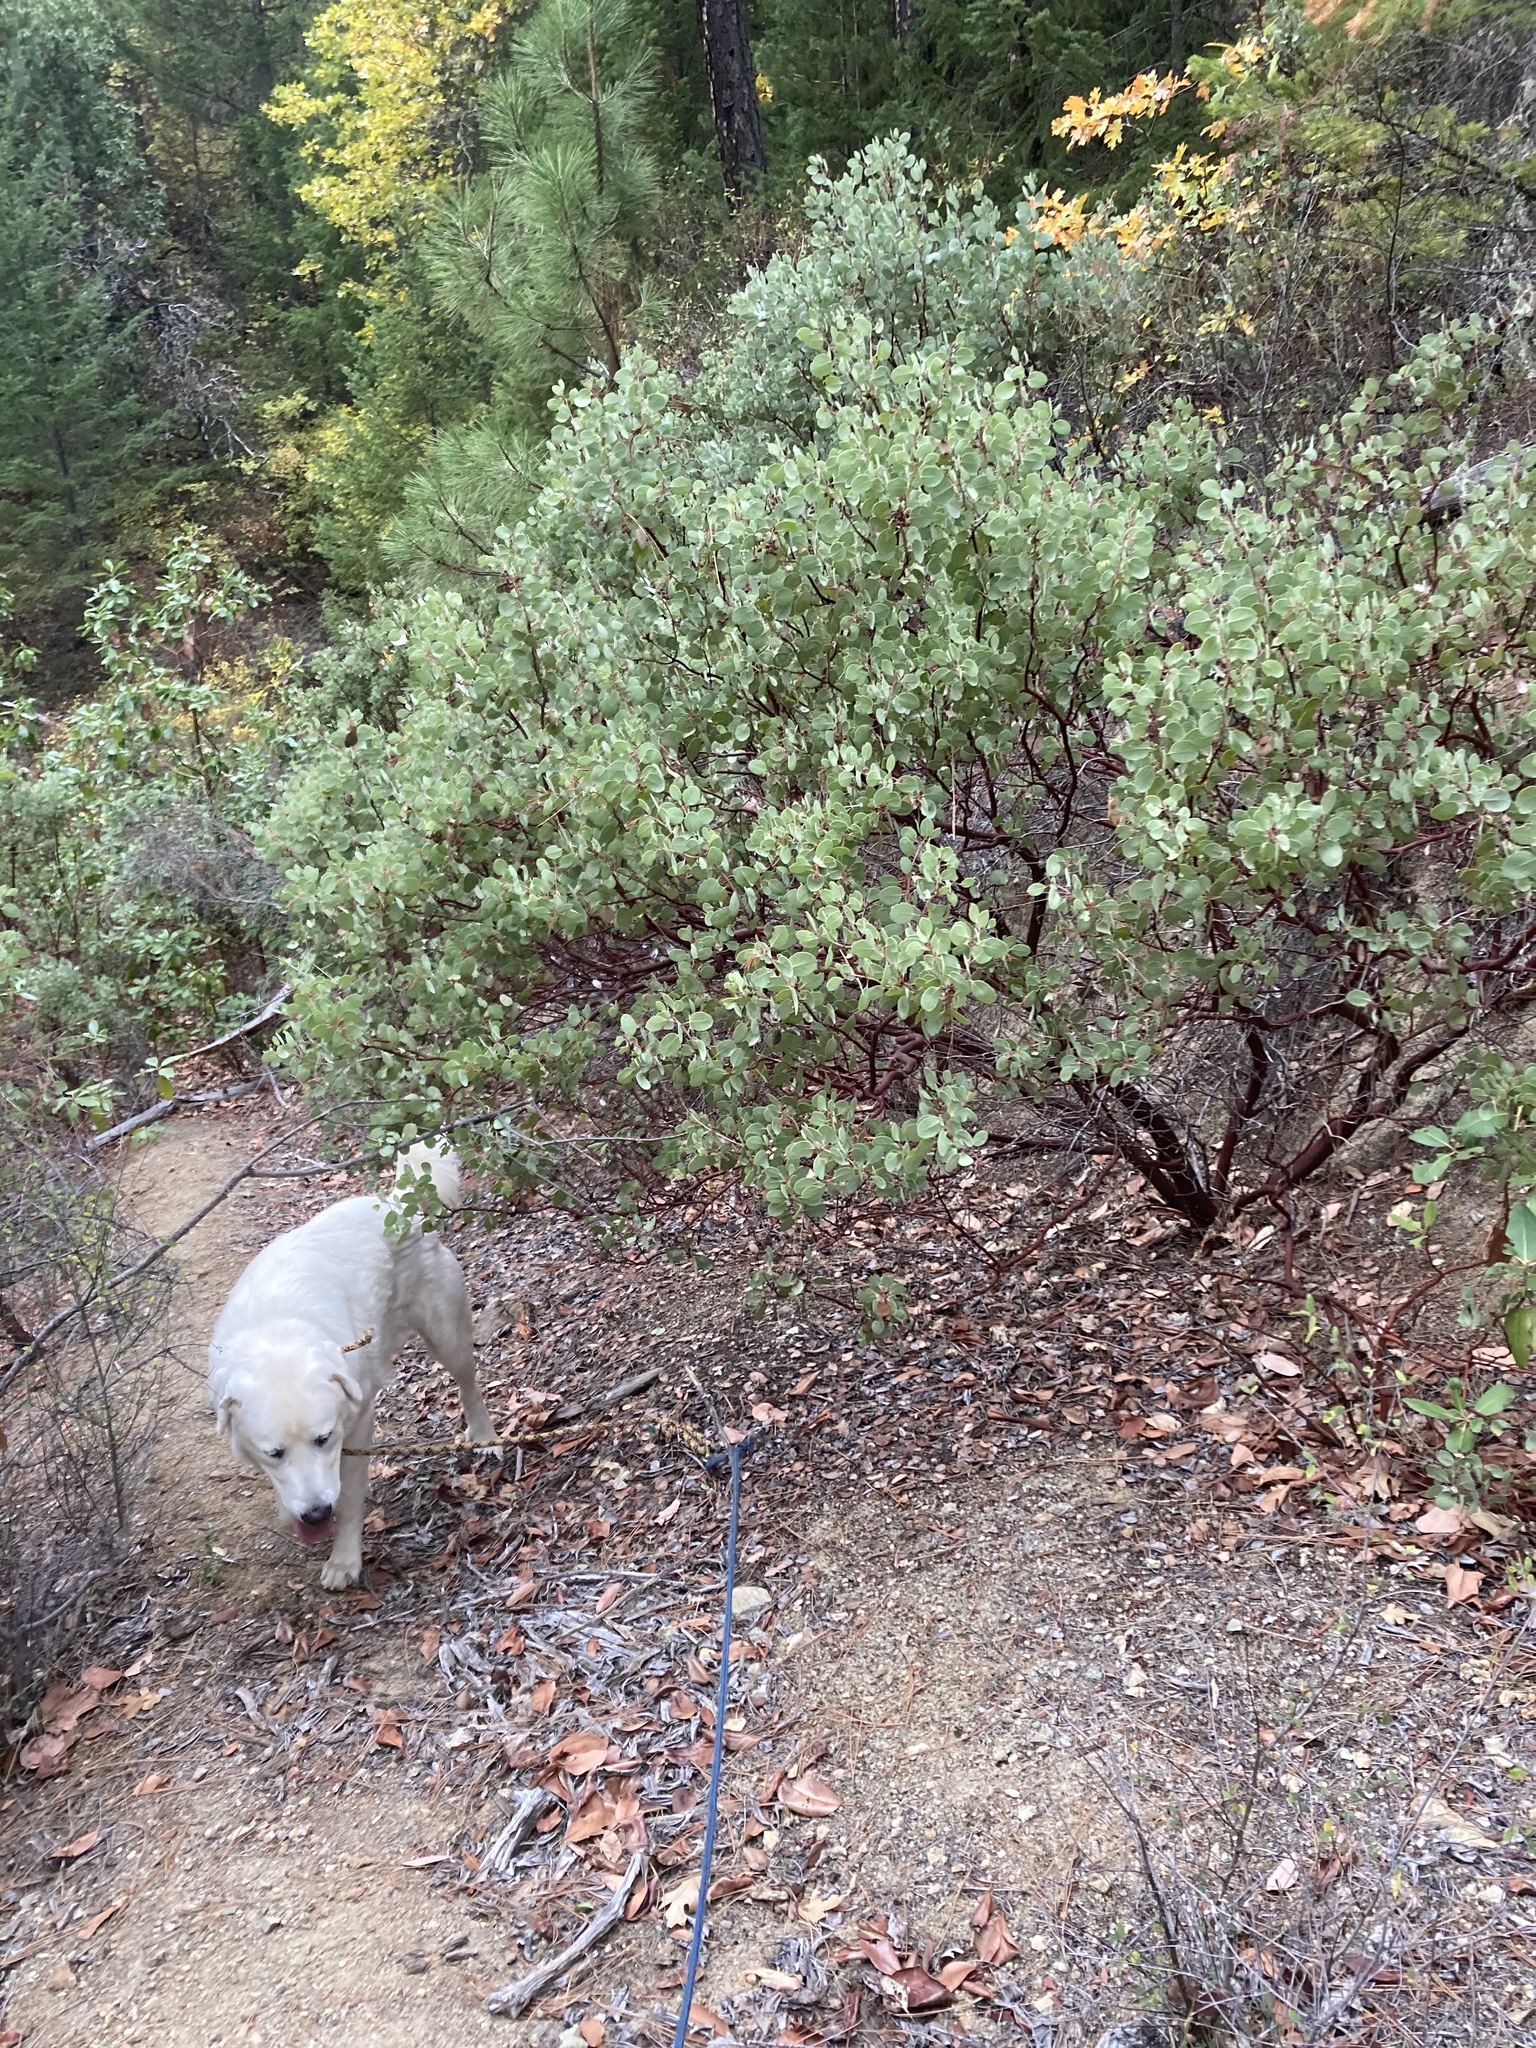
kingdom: Plantae
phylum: Tracheophyta
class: Magnoliopsida
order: Ericales
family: Ericaceae
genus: Arctostaphylos
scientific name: Arctostaphylos columbiana
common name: Bristly bearberry
